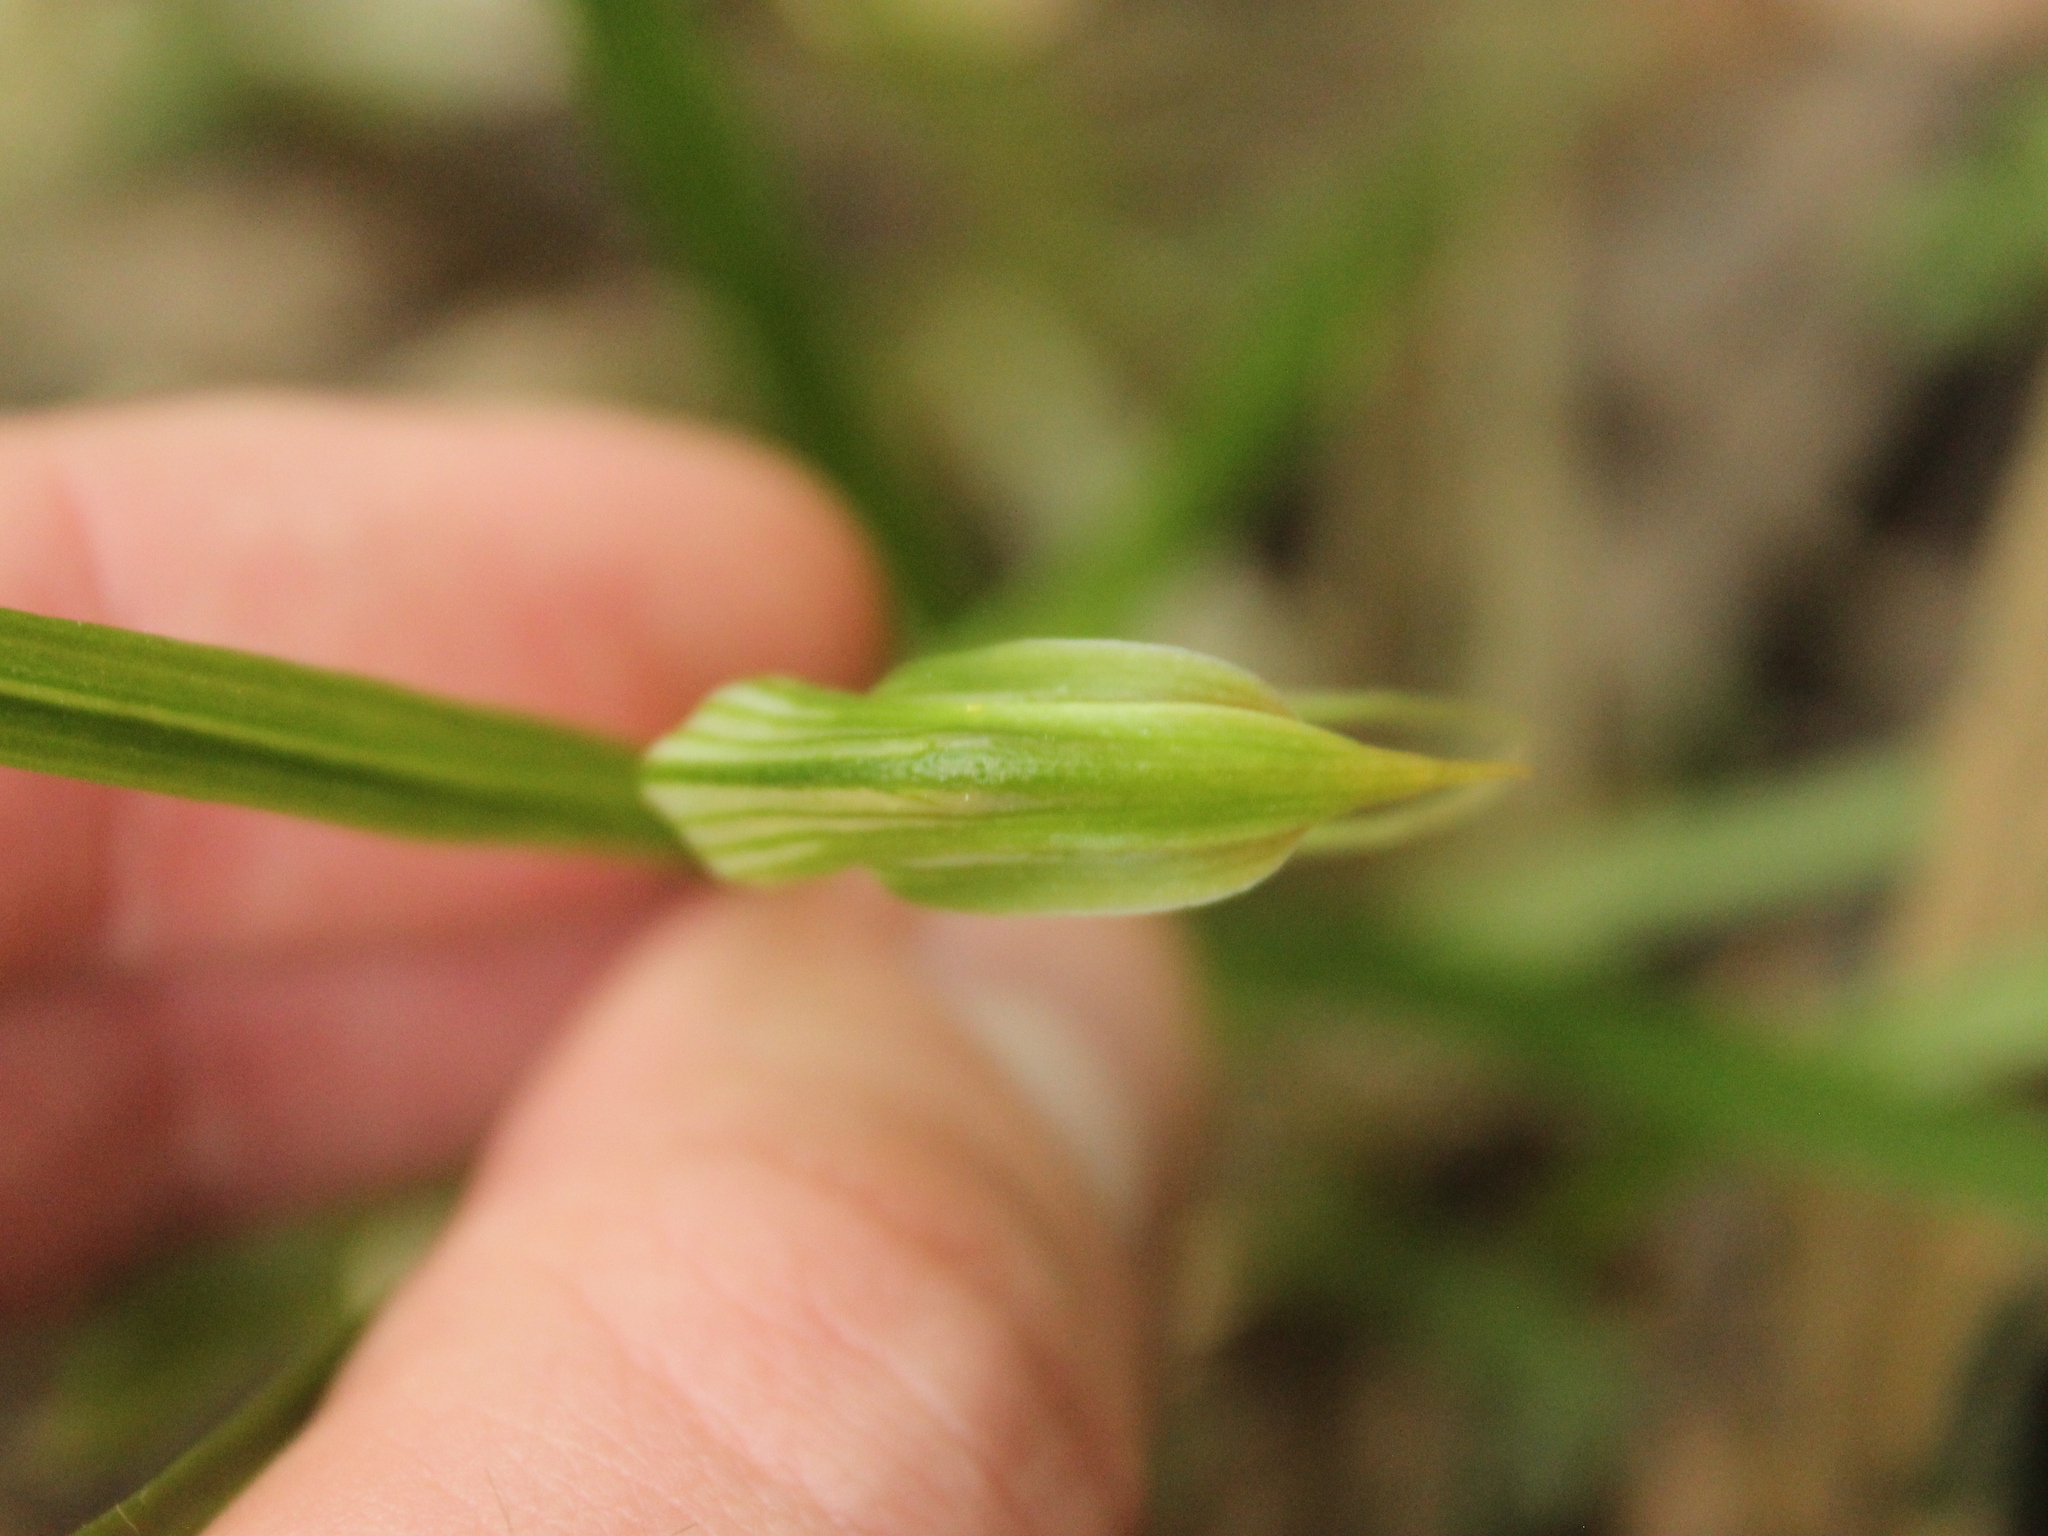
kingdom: Plantae
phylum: Tracheophyta
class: Liliopsida
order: Asparagales
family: Orchidaceae
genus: Pterostylis
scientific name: Pterostylis porrecta
